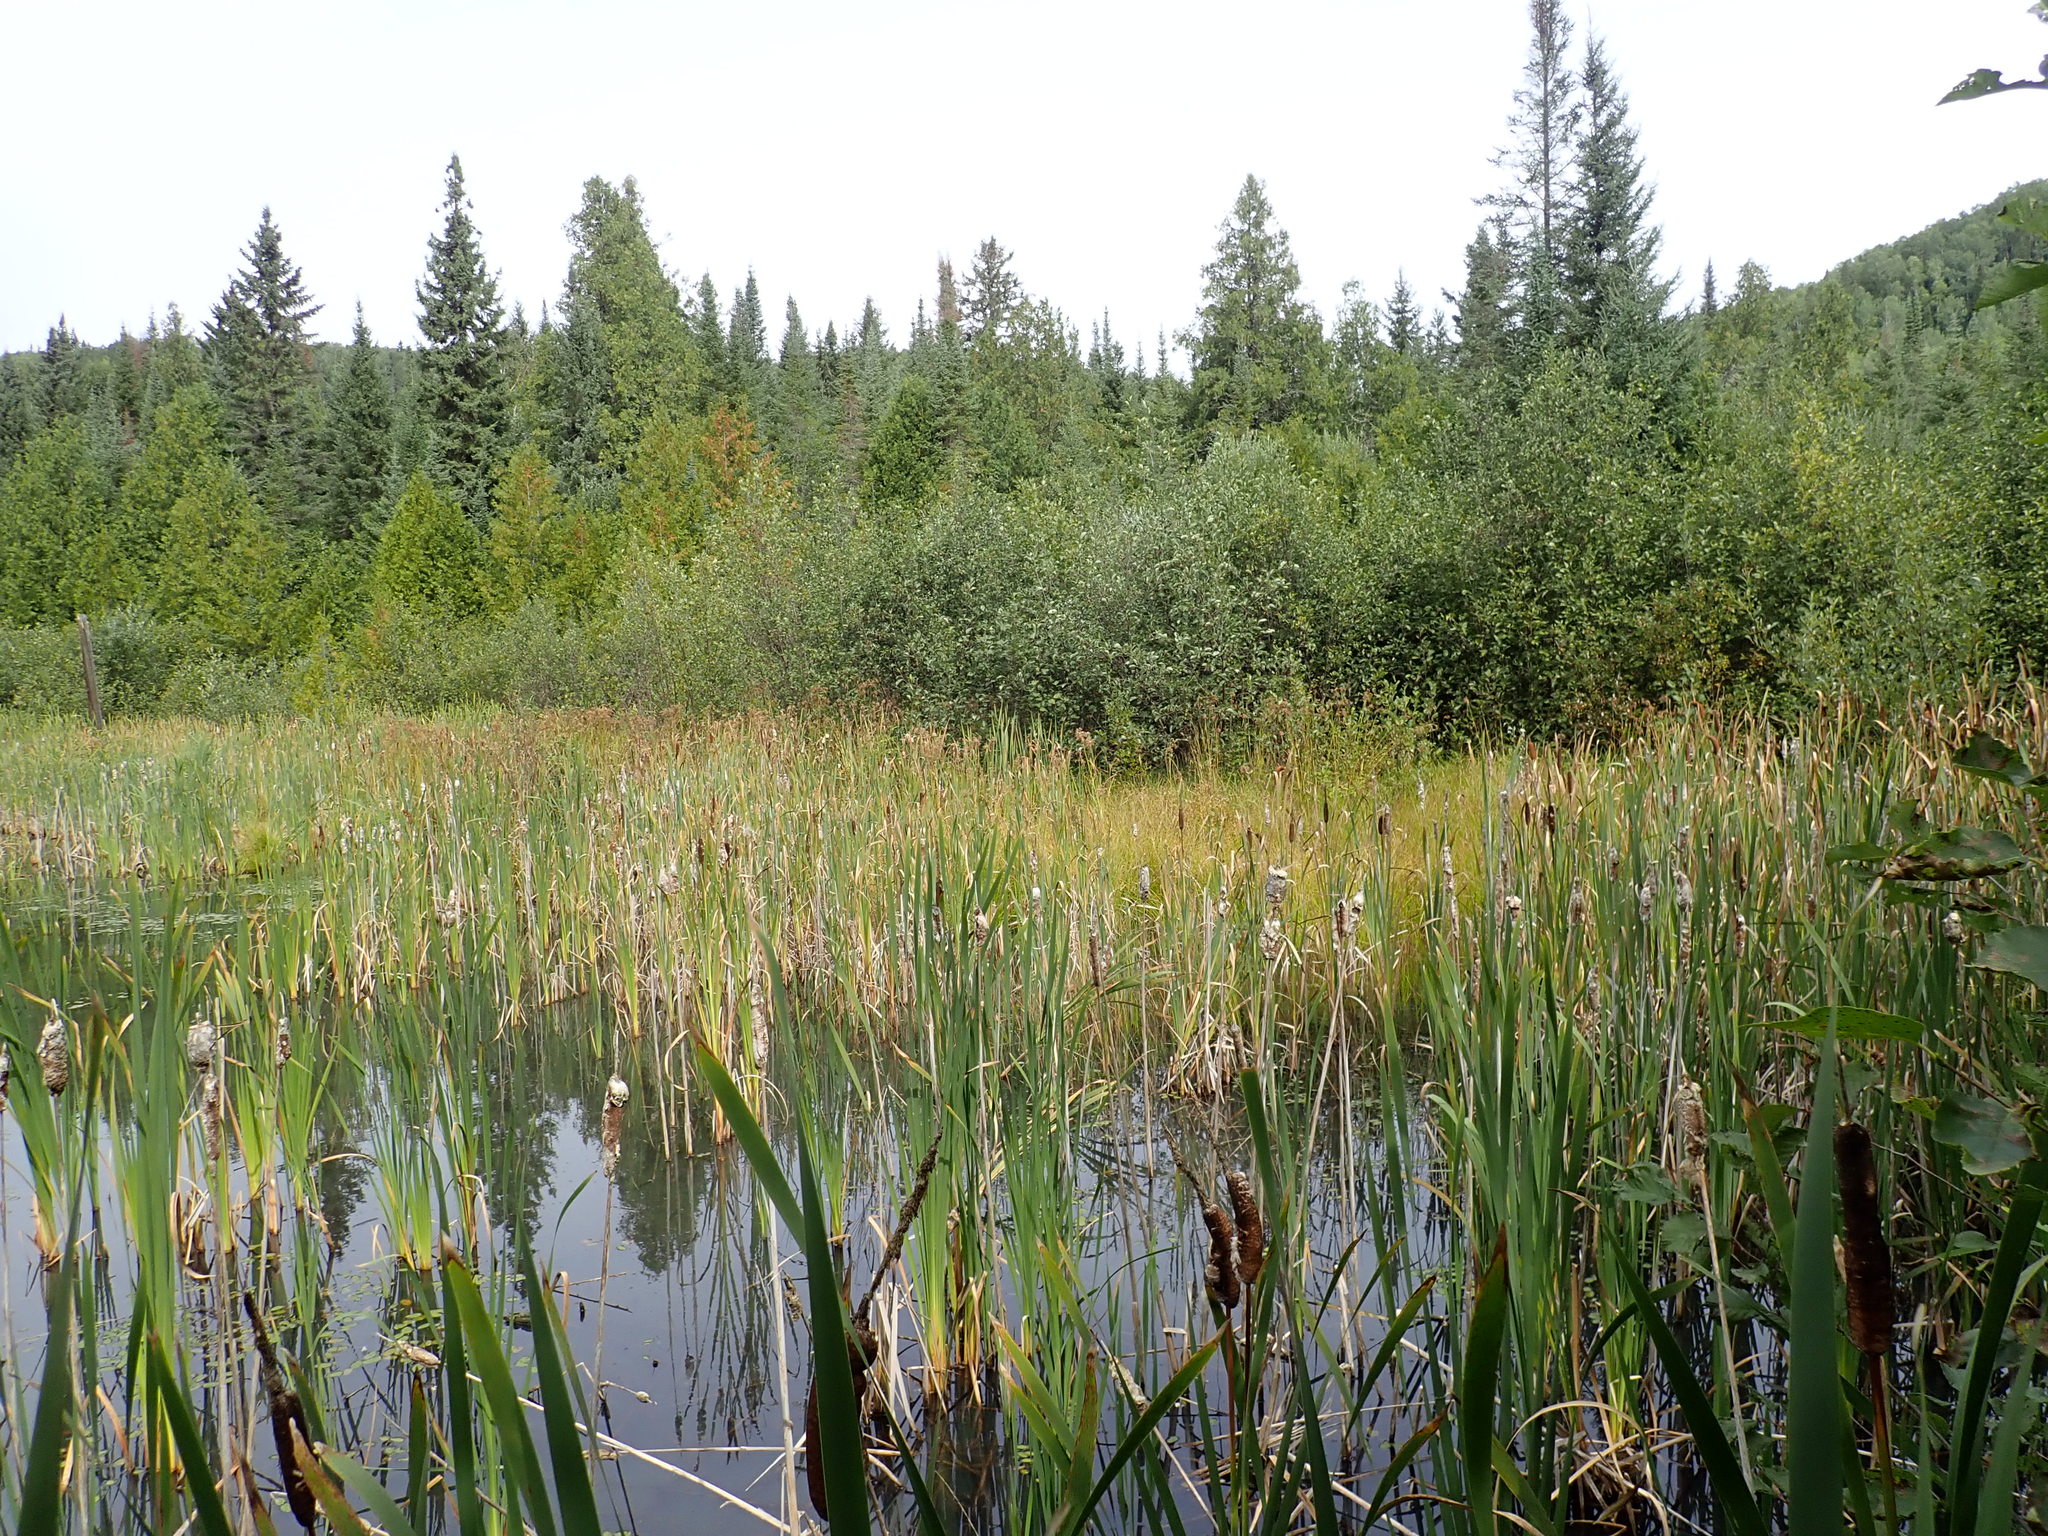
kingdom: Plantae
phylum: Tracheophyta
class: Liliopsida
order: Poales
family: Typhaceae
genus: Typha
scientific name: Typha latifolia
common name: Broadleaf cattail
